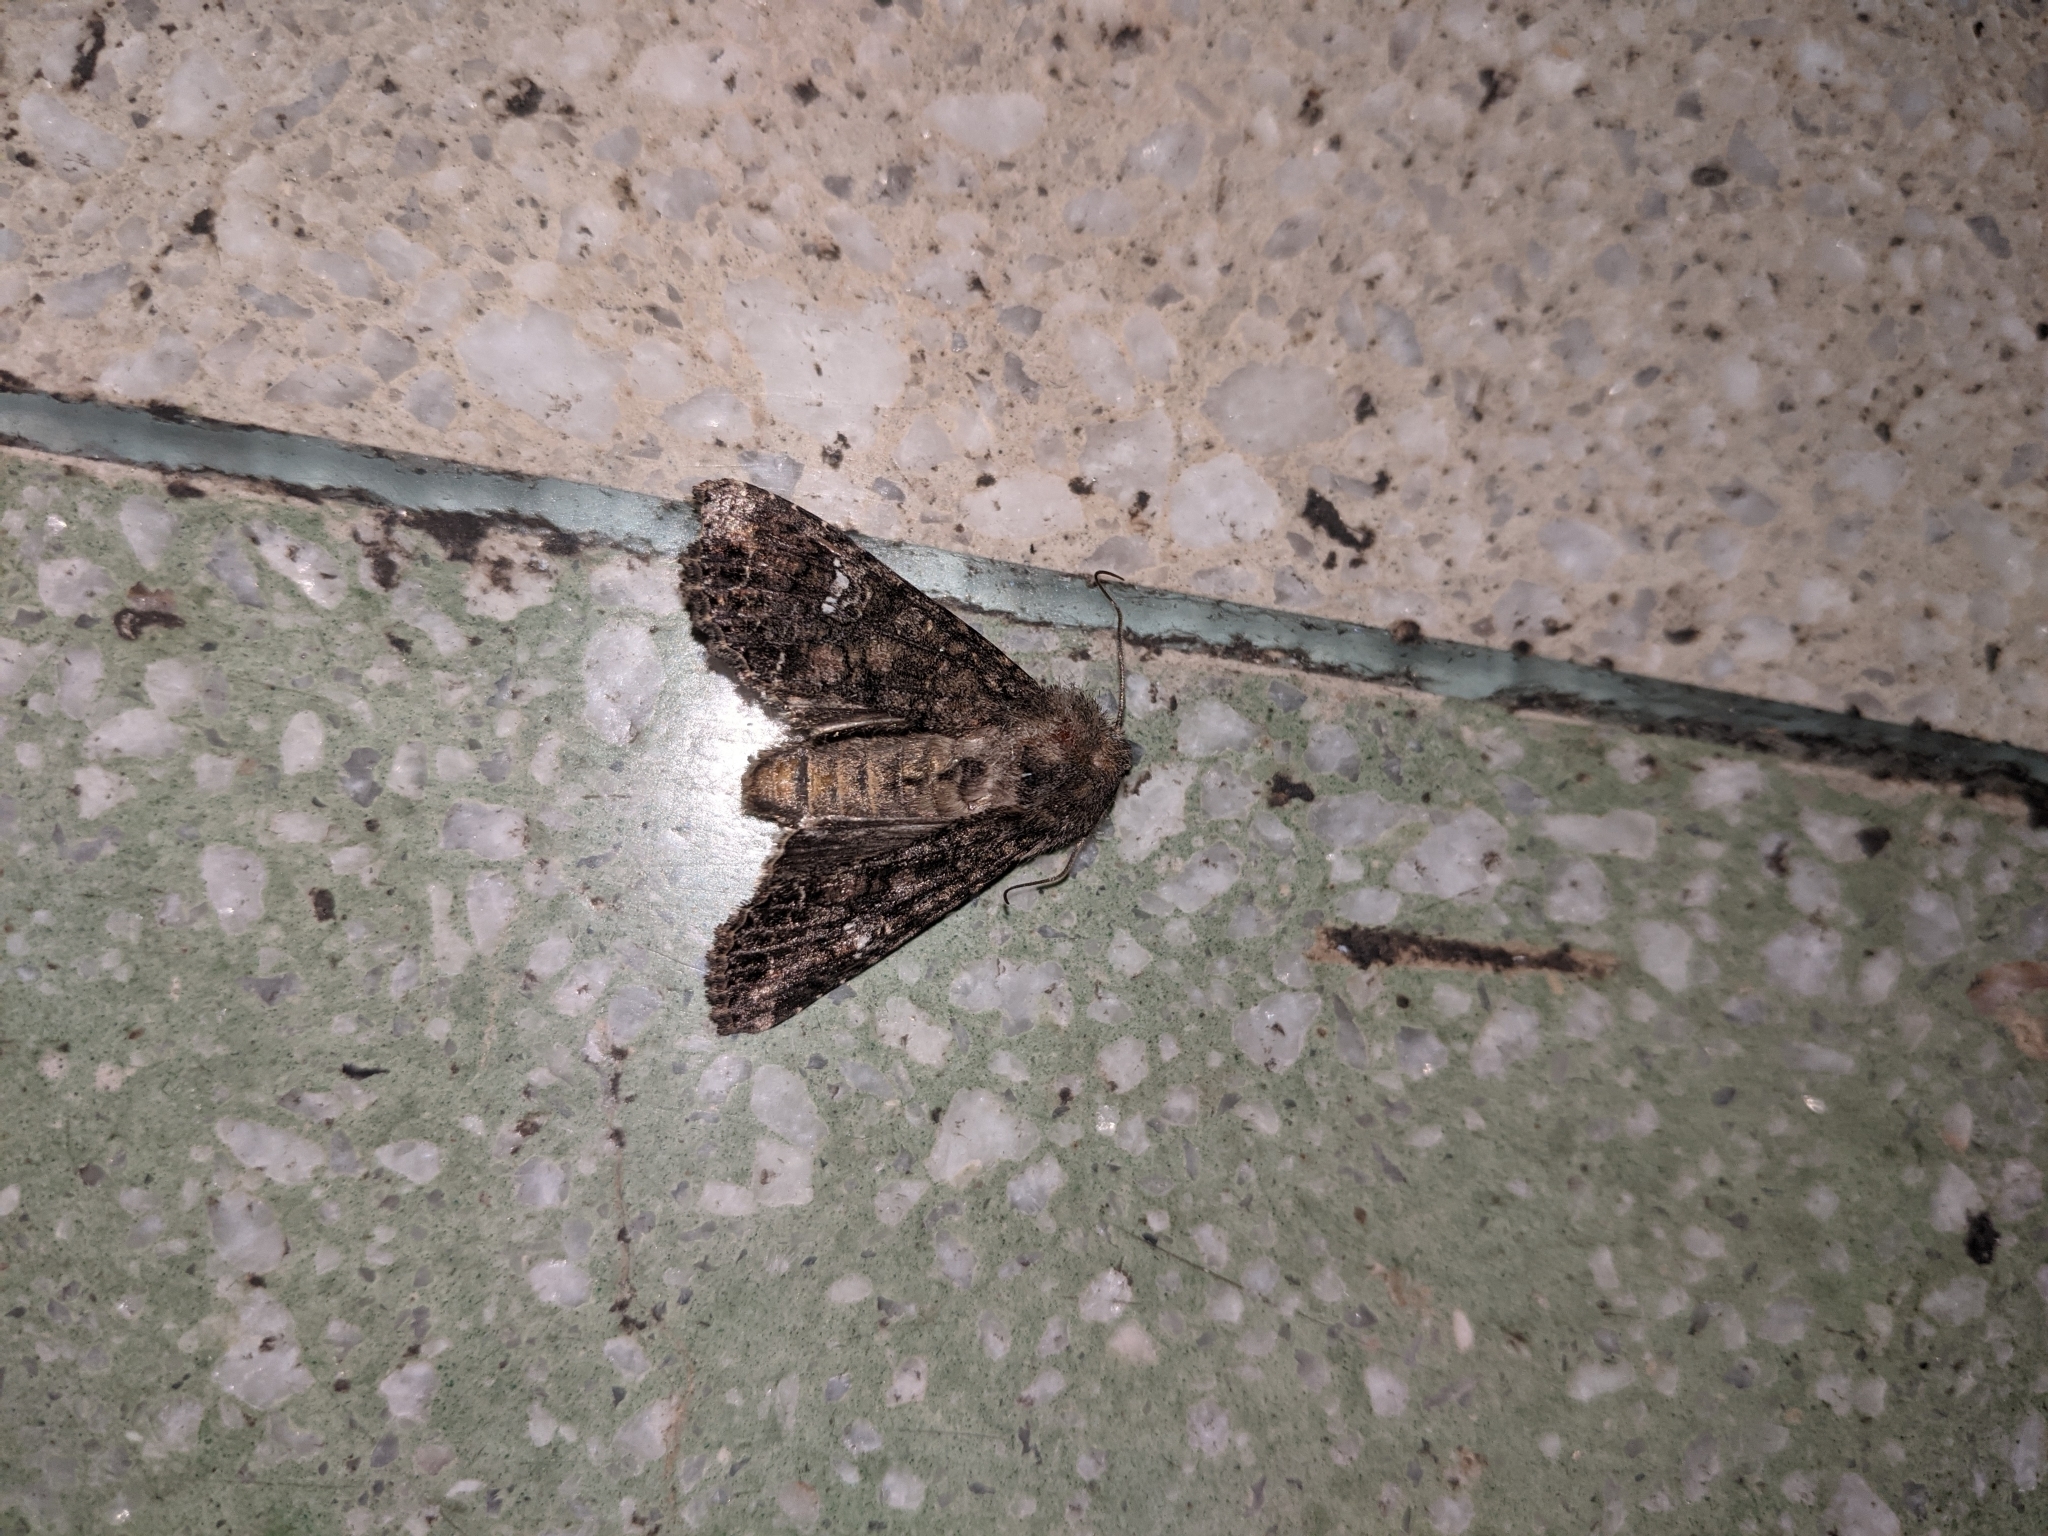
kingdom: Animalia
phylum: Arthropoda
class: Insecta
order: Lepidoptera
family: Noctuidae
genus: Mamestra
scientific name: Mamestra brassicae
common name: Cabbage moth
